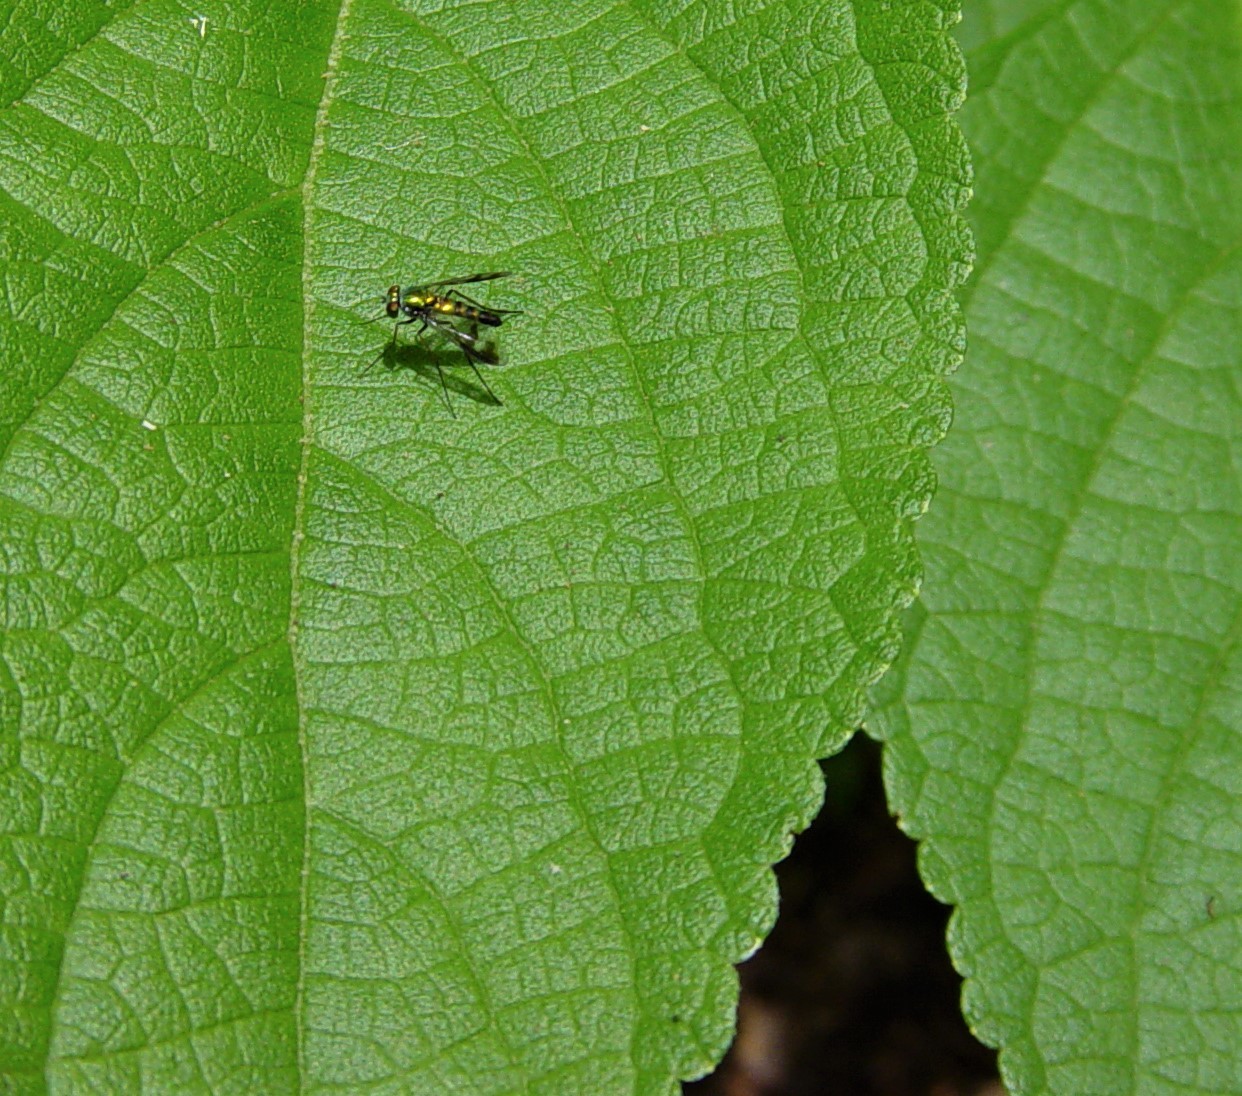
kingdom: Animalia
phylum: Arthropoda
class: Insecta
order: Diptera
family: Dolichopodidae
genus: Condylostylus
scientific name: Condylostylus quadricolor
